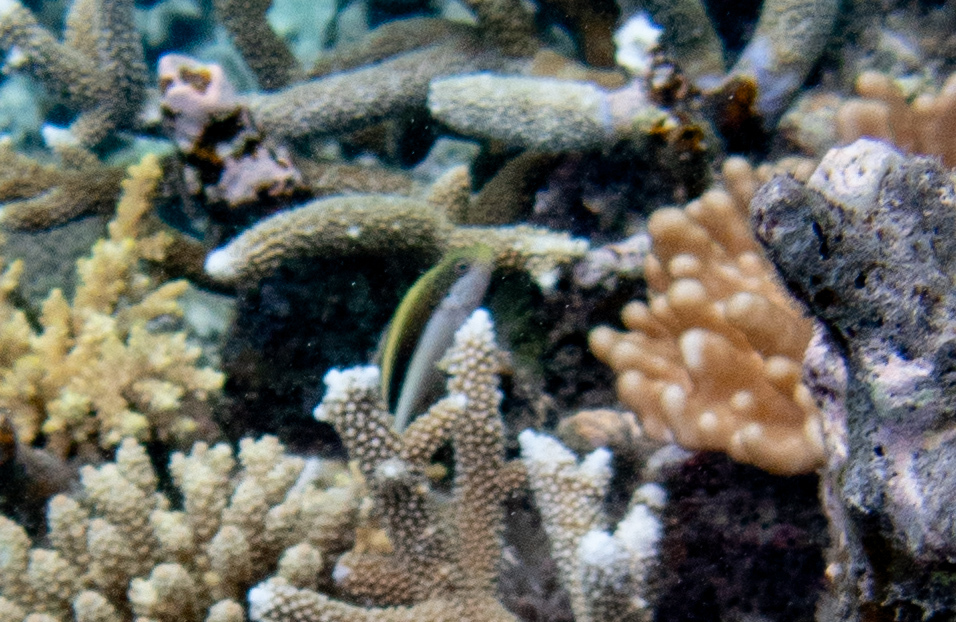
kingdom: Animalia
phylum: Chordata
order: Perciformes
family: Cirrhitidae
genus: Paracirrhites
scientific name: Paracirrhites forsteri
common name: Freckled hawkfish
